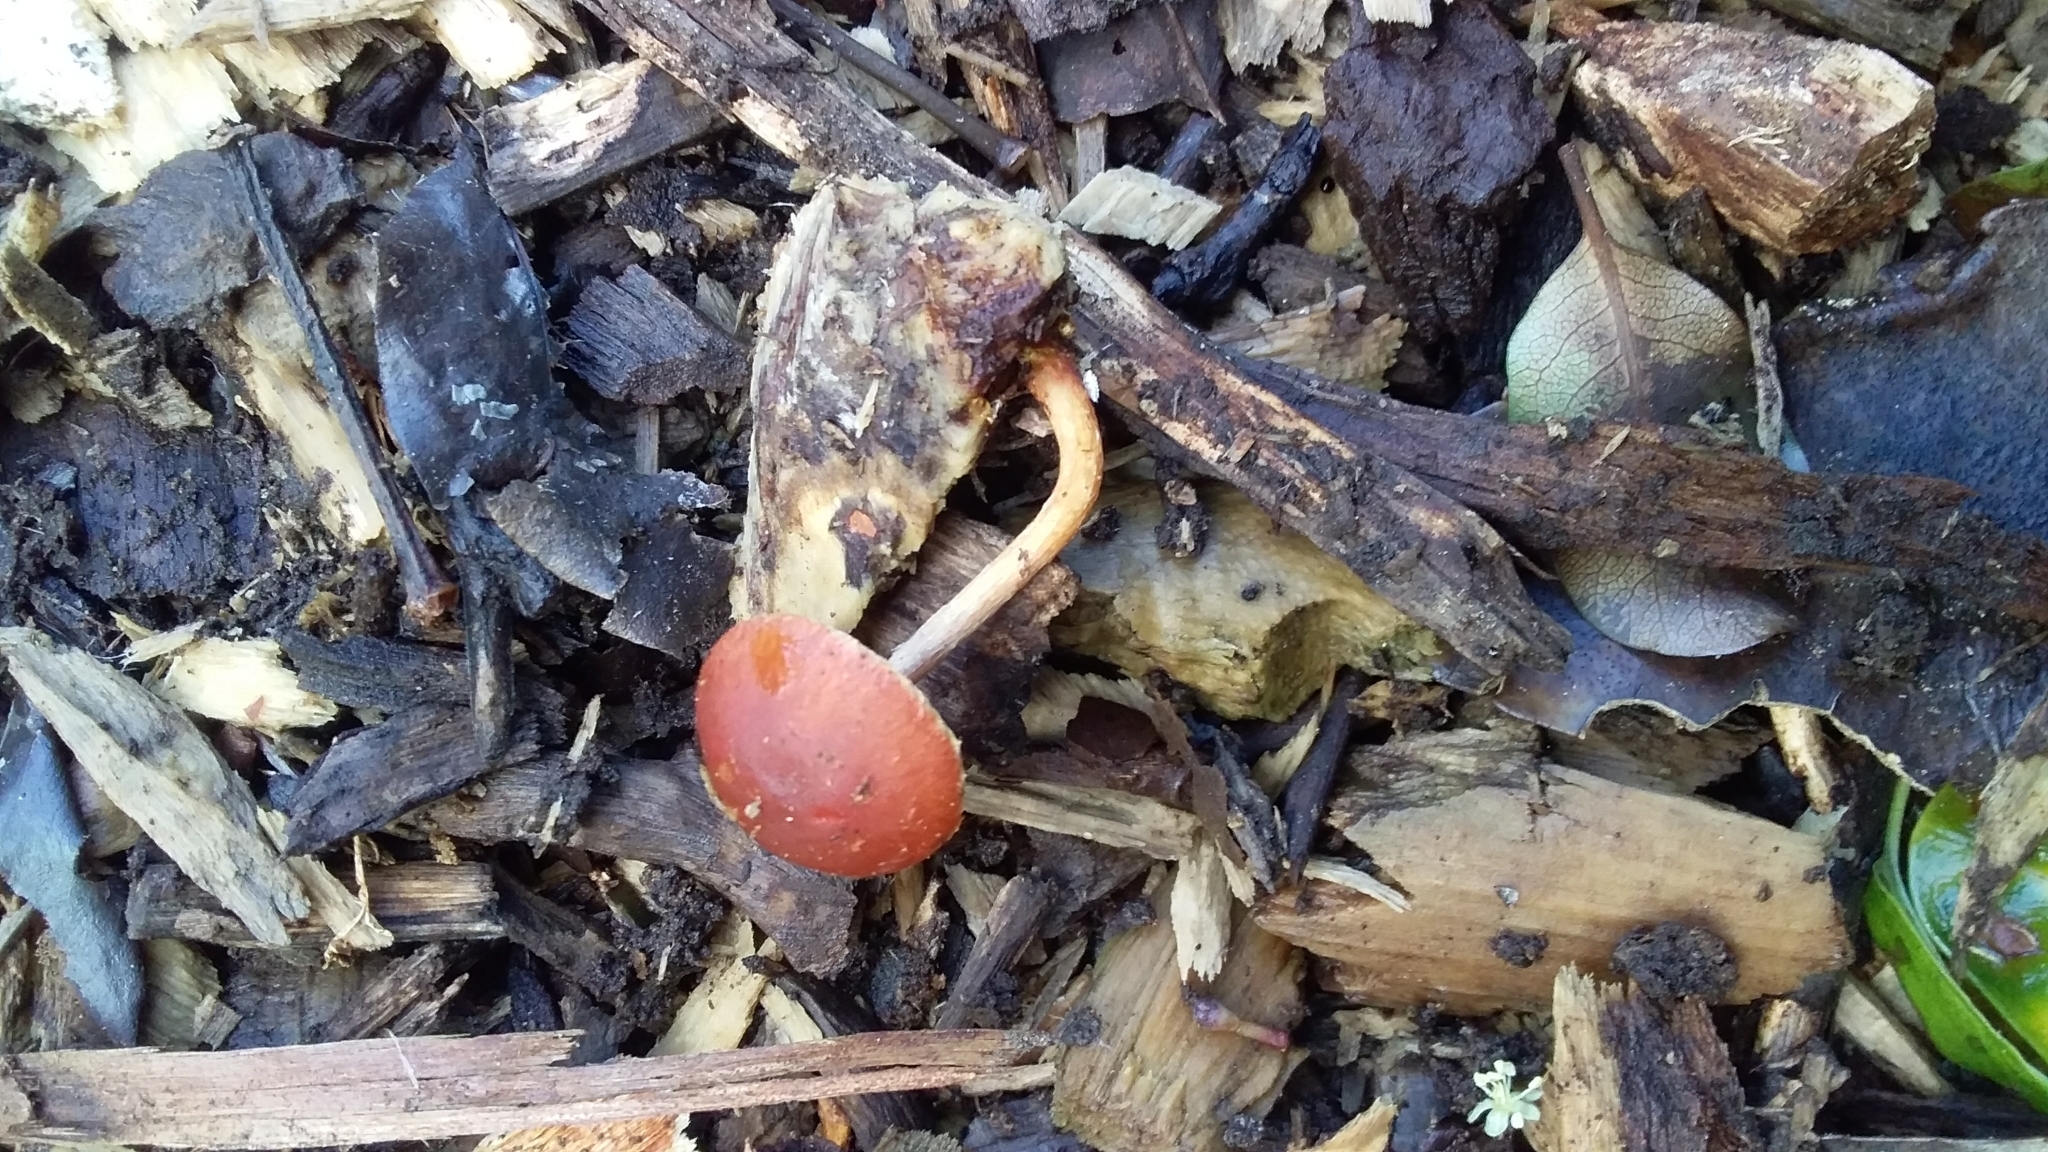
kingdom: Fungi
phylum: Basidiomycota
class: Agaricomycetes
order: Agaricales
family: Strophariaceae
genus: Leratiomyces
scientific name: Leratiomyces ceres
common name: Redlead roundhead
